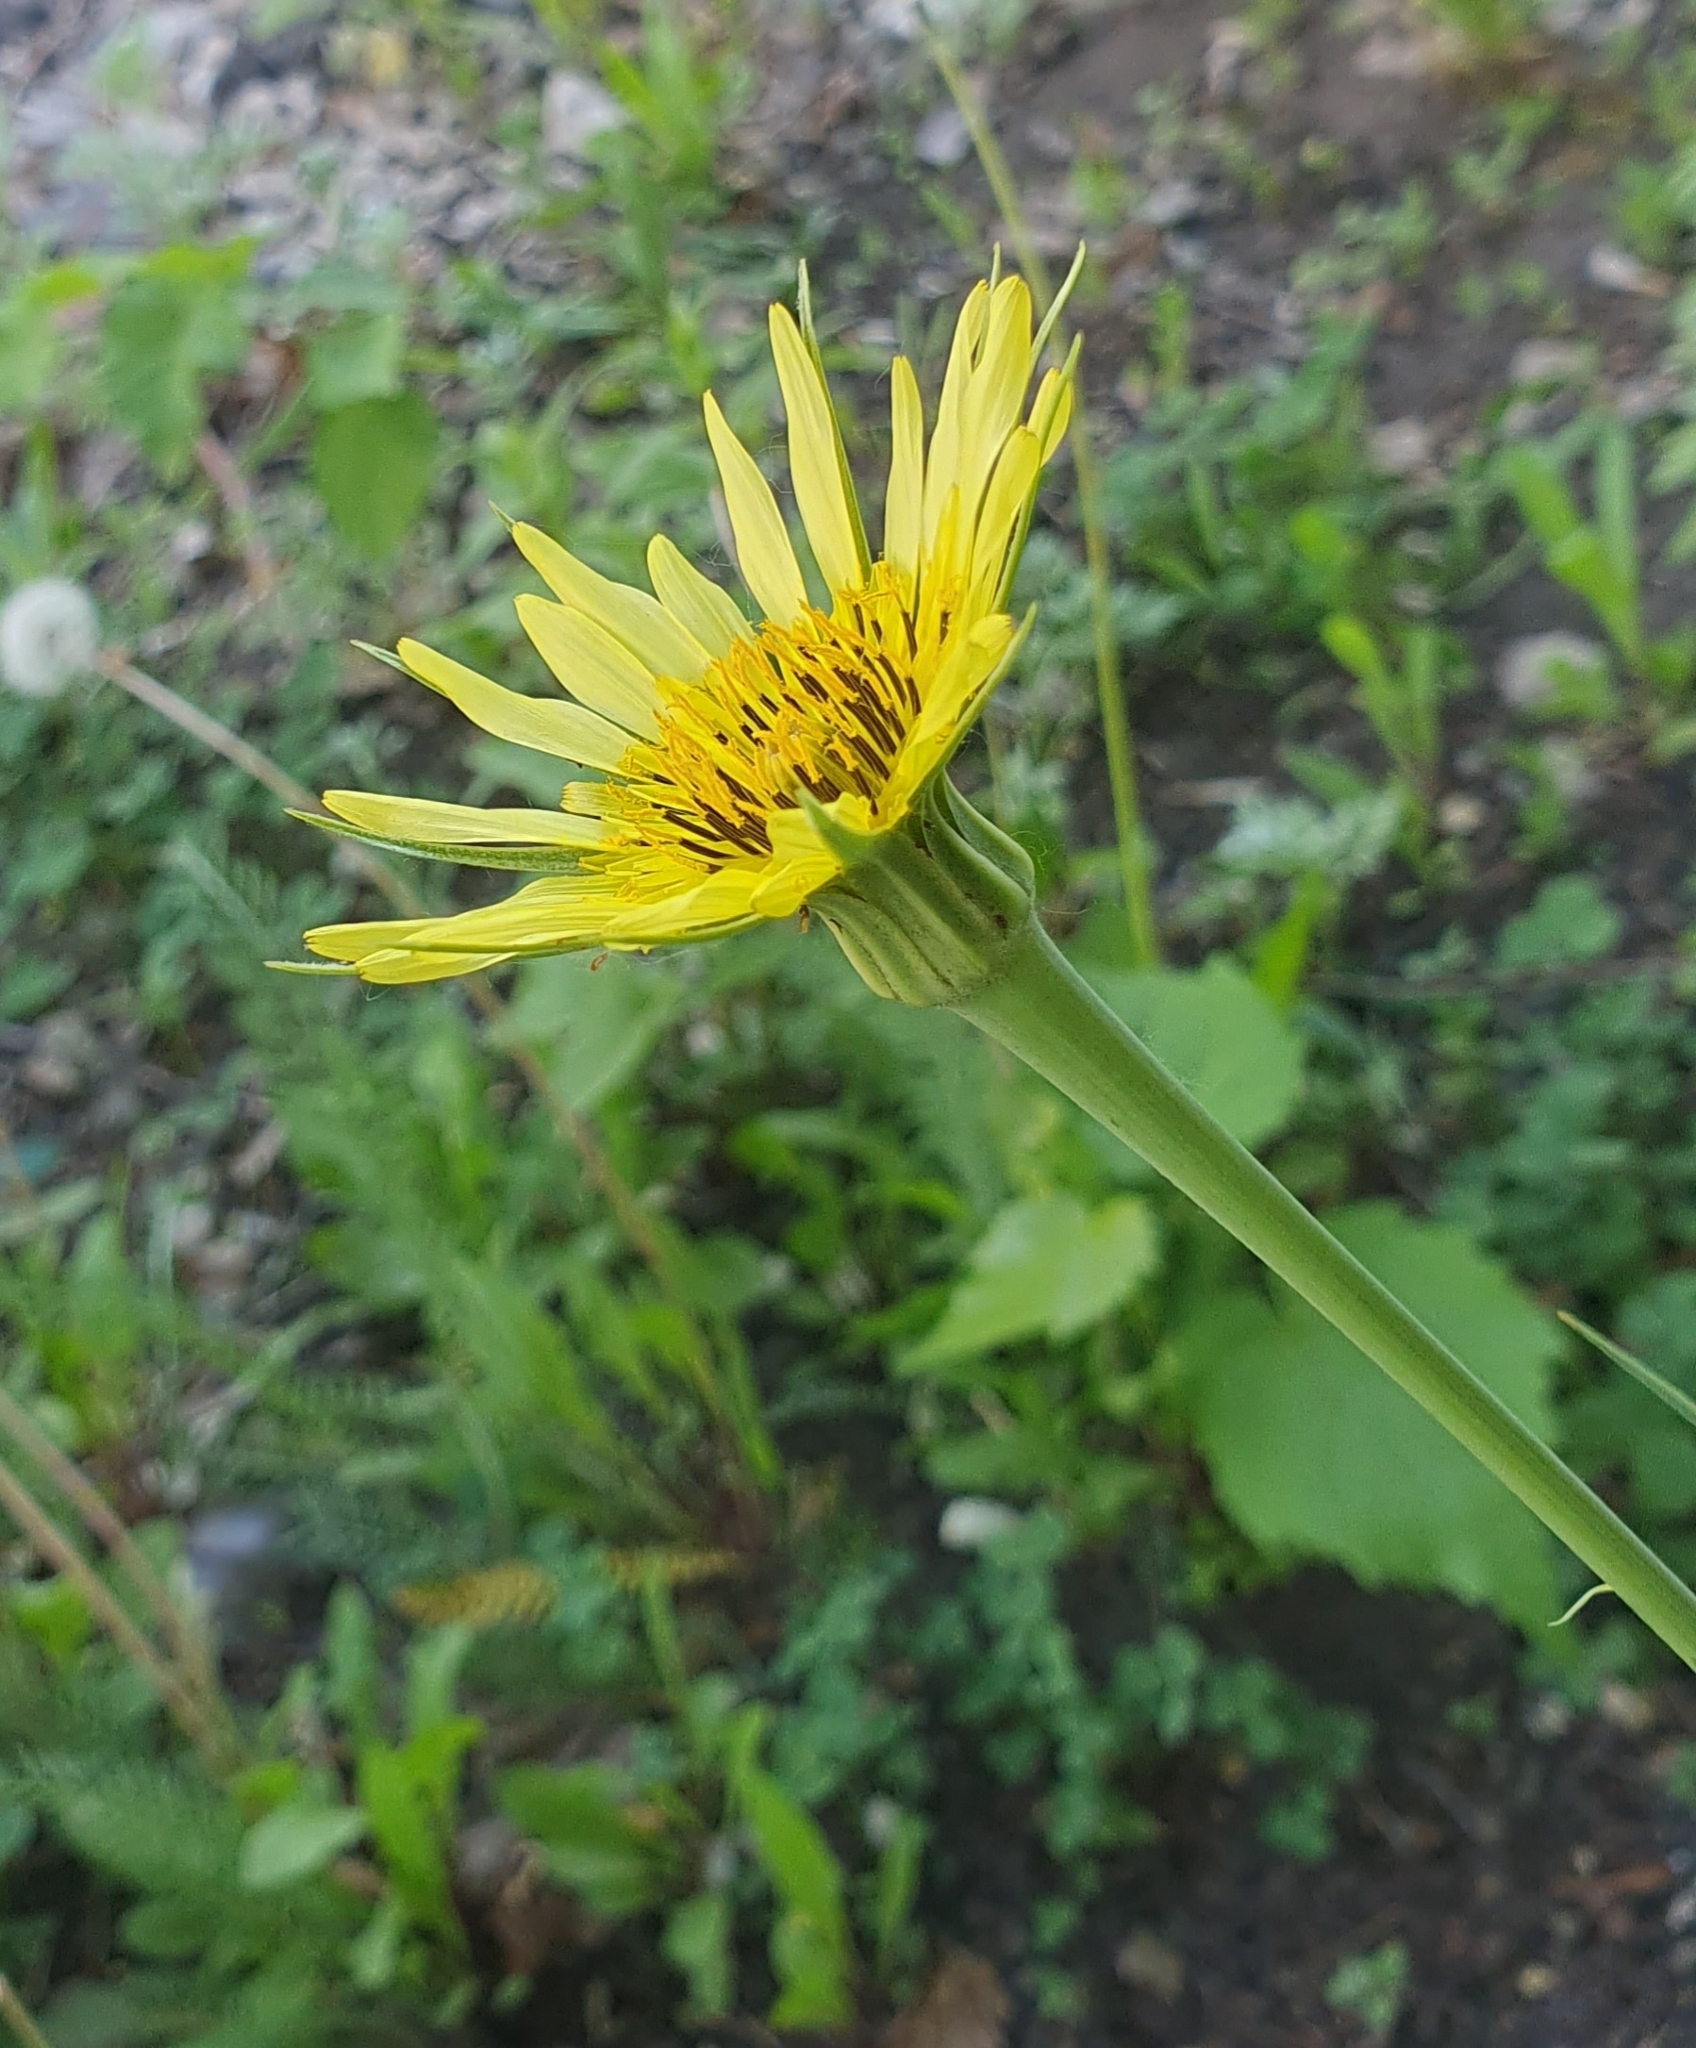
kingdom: Plantae
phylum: Tracheophyta
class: Magnoliopsida
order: Asterales
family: Asteraceae
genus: Tragopogon
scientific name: Tragopogon dubius
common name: Yellow salsify
